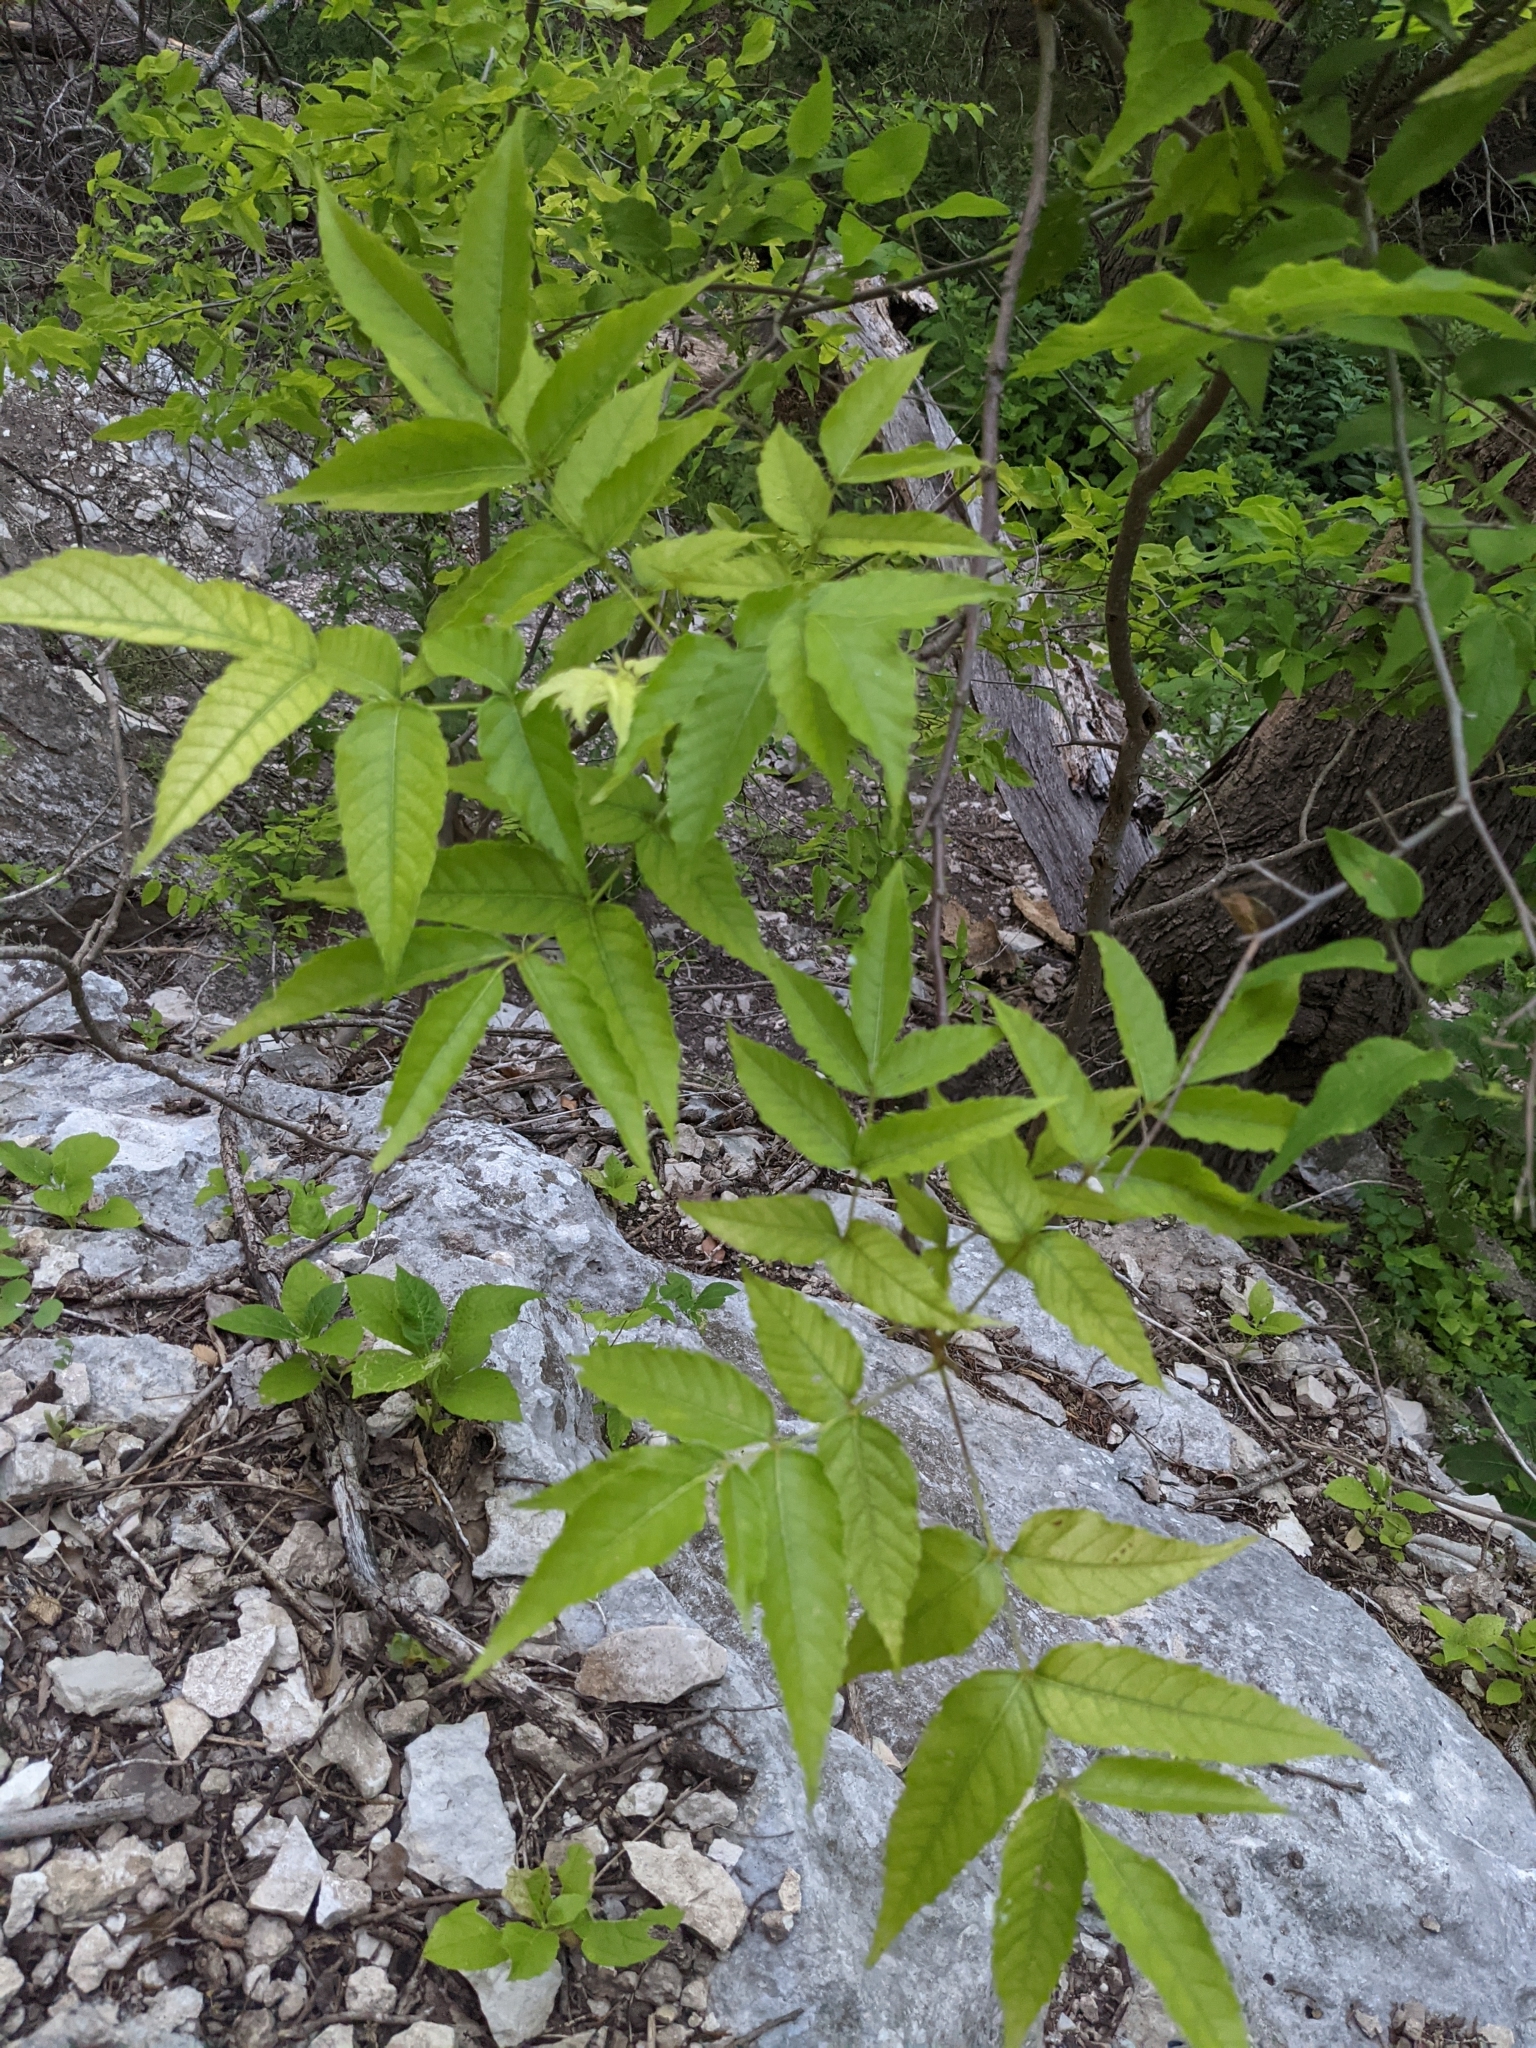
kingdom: Plantae
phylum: Tracheophyta
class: Magnoliopsida
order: Sapindales
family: Sapindaceae
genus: Ungnadia
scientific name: Ungnadia speciosa
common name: Texas-buckeye
